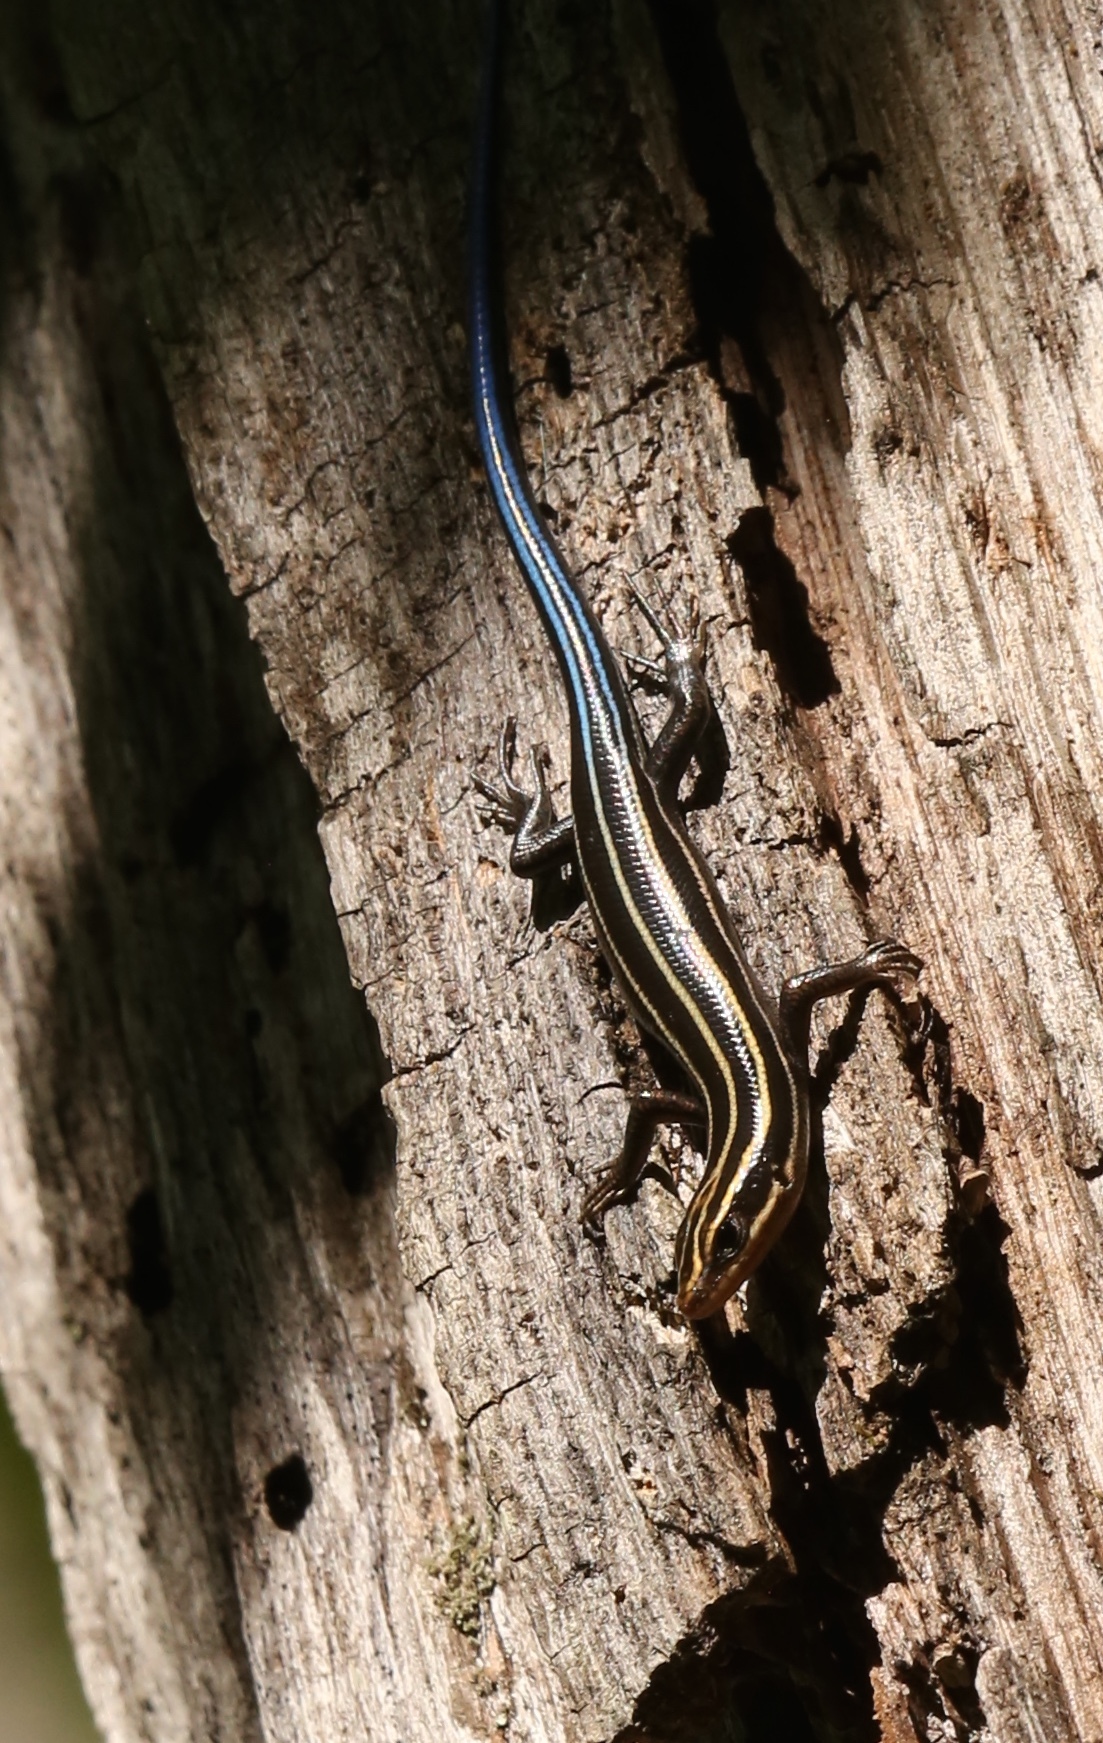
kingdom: Animalia
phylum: Chordata
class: Squamata
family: Scincidae
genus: Plestiodon
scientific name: Plestiodon fasciatus
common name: Five-lined skink
